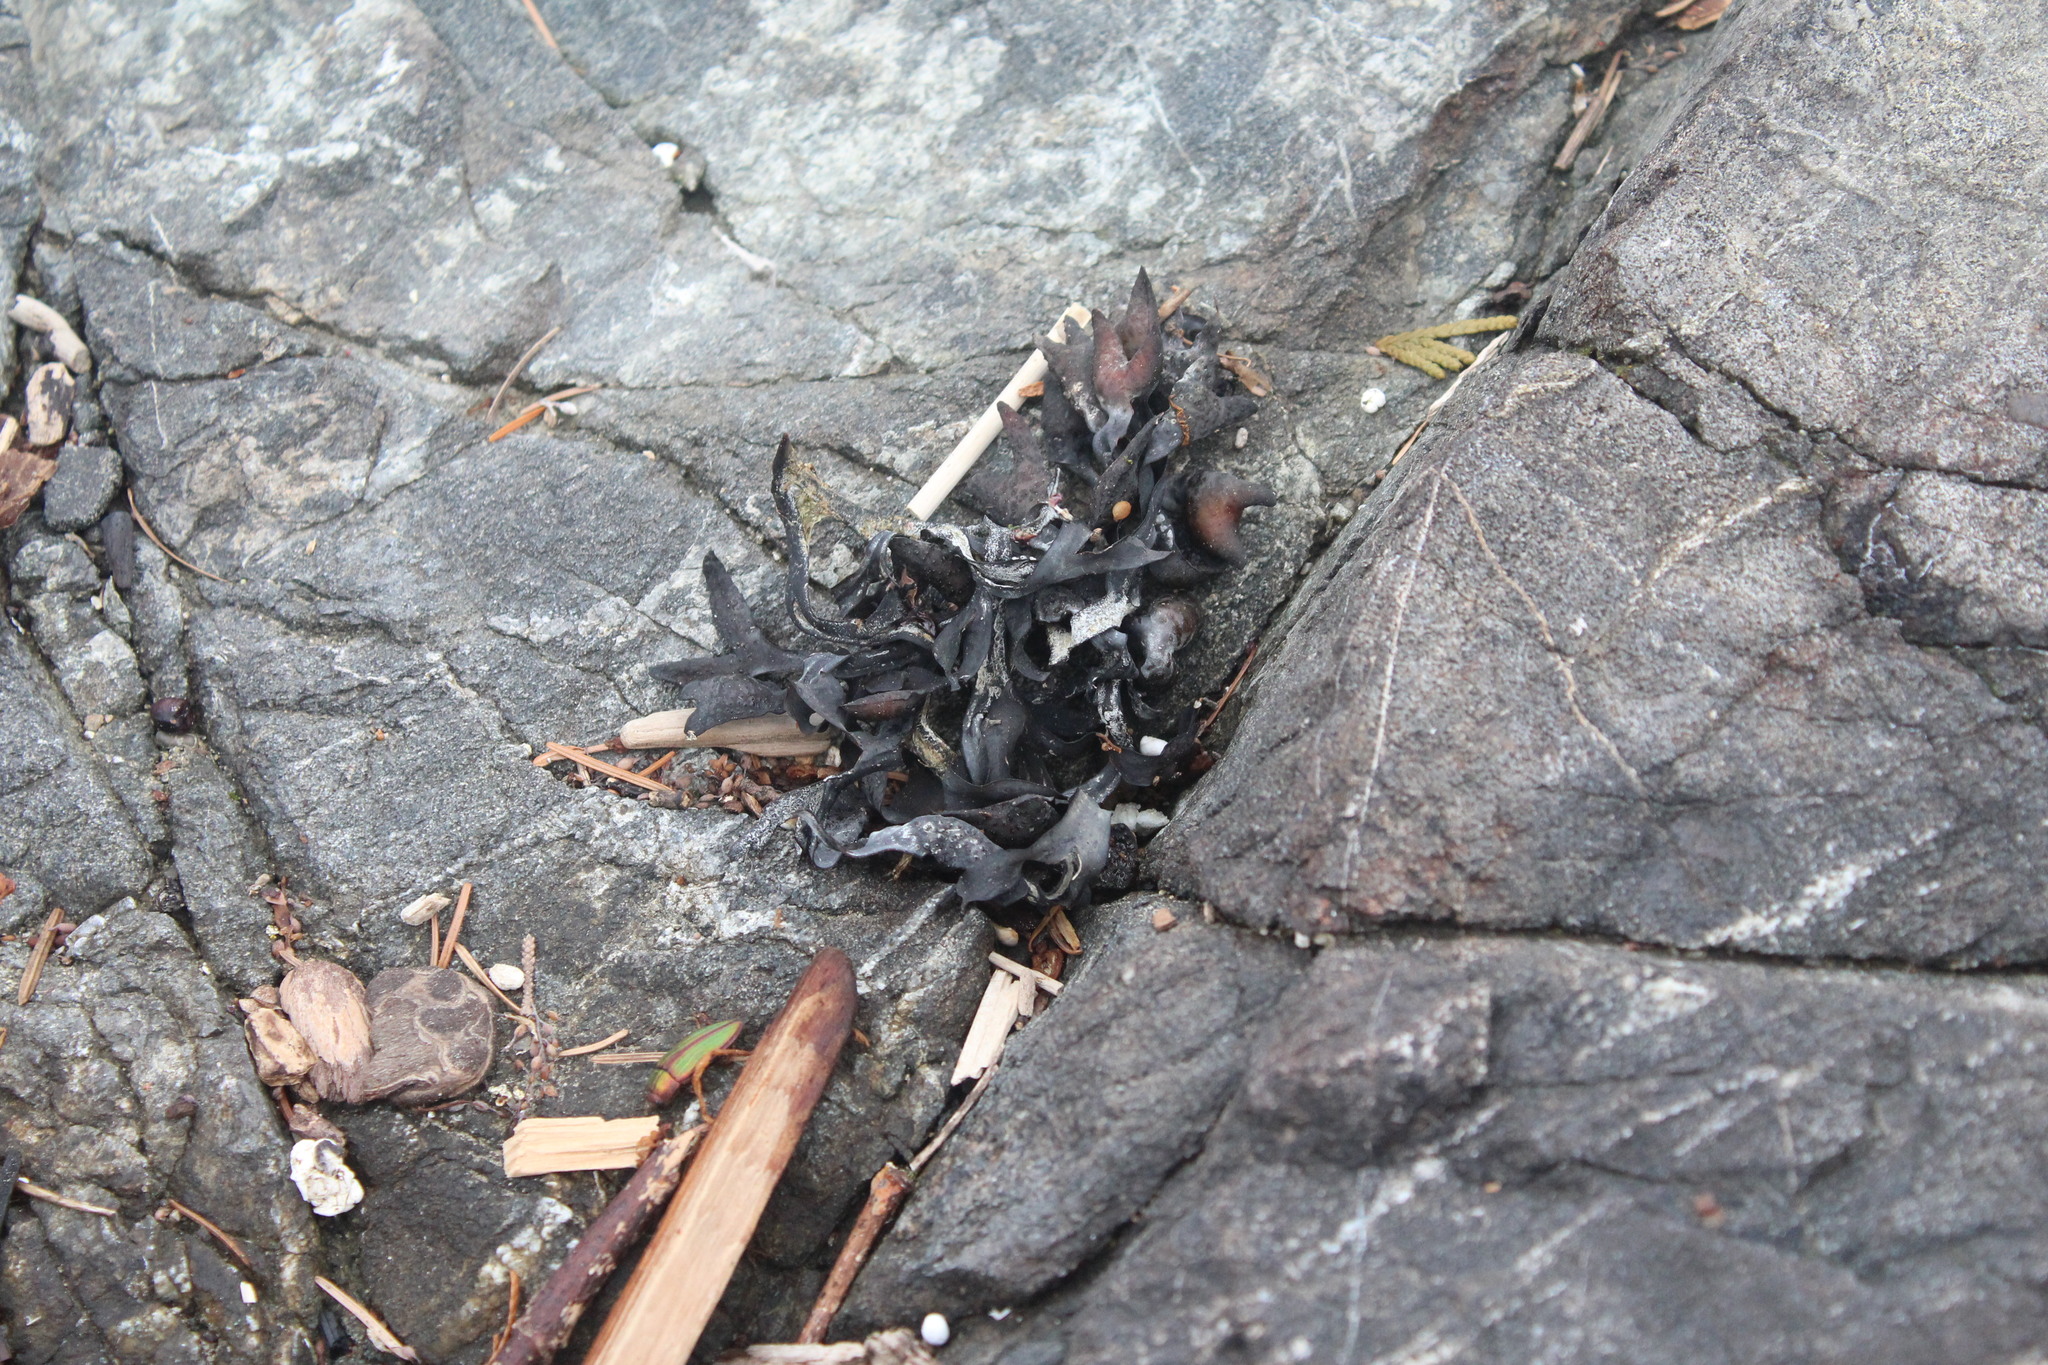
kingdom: Chromista
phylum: Ochrophyta
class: Phaeophyceae
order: Fucales
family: Fucaceae
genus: Fucus
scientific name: Fucus distichus
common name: Rockweed
